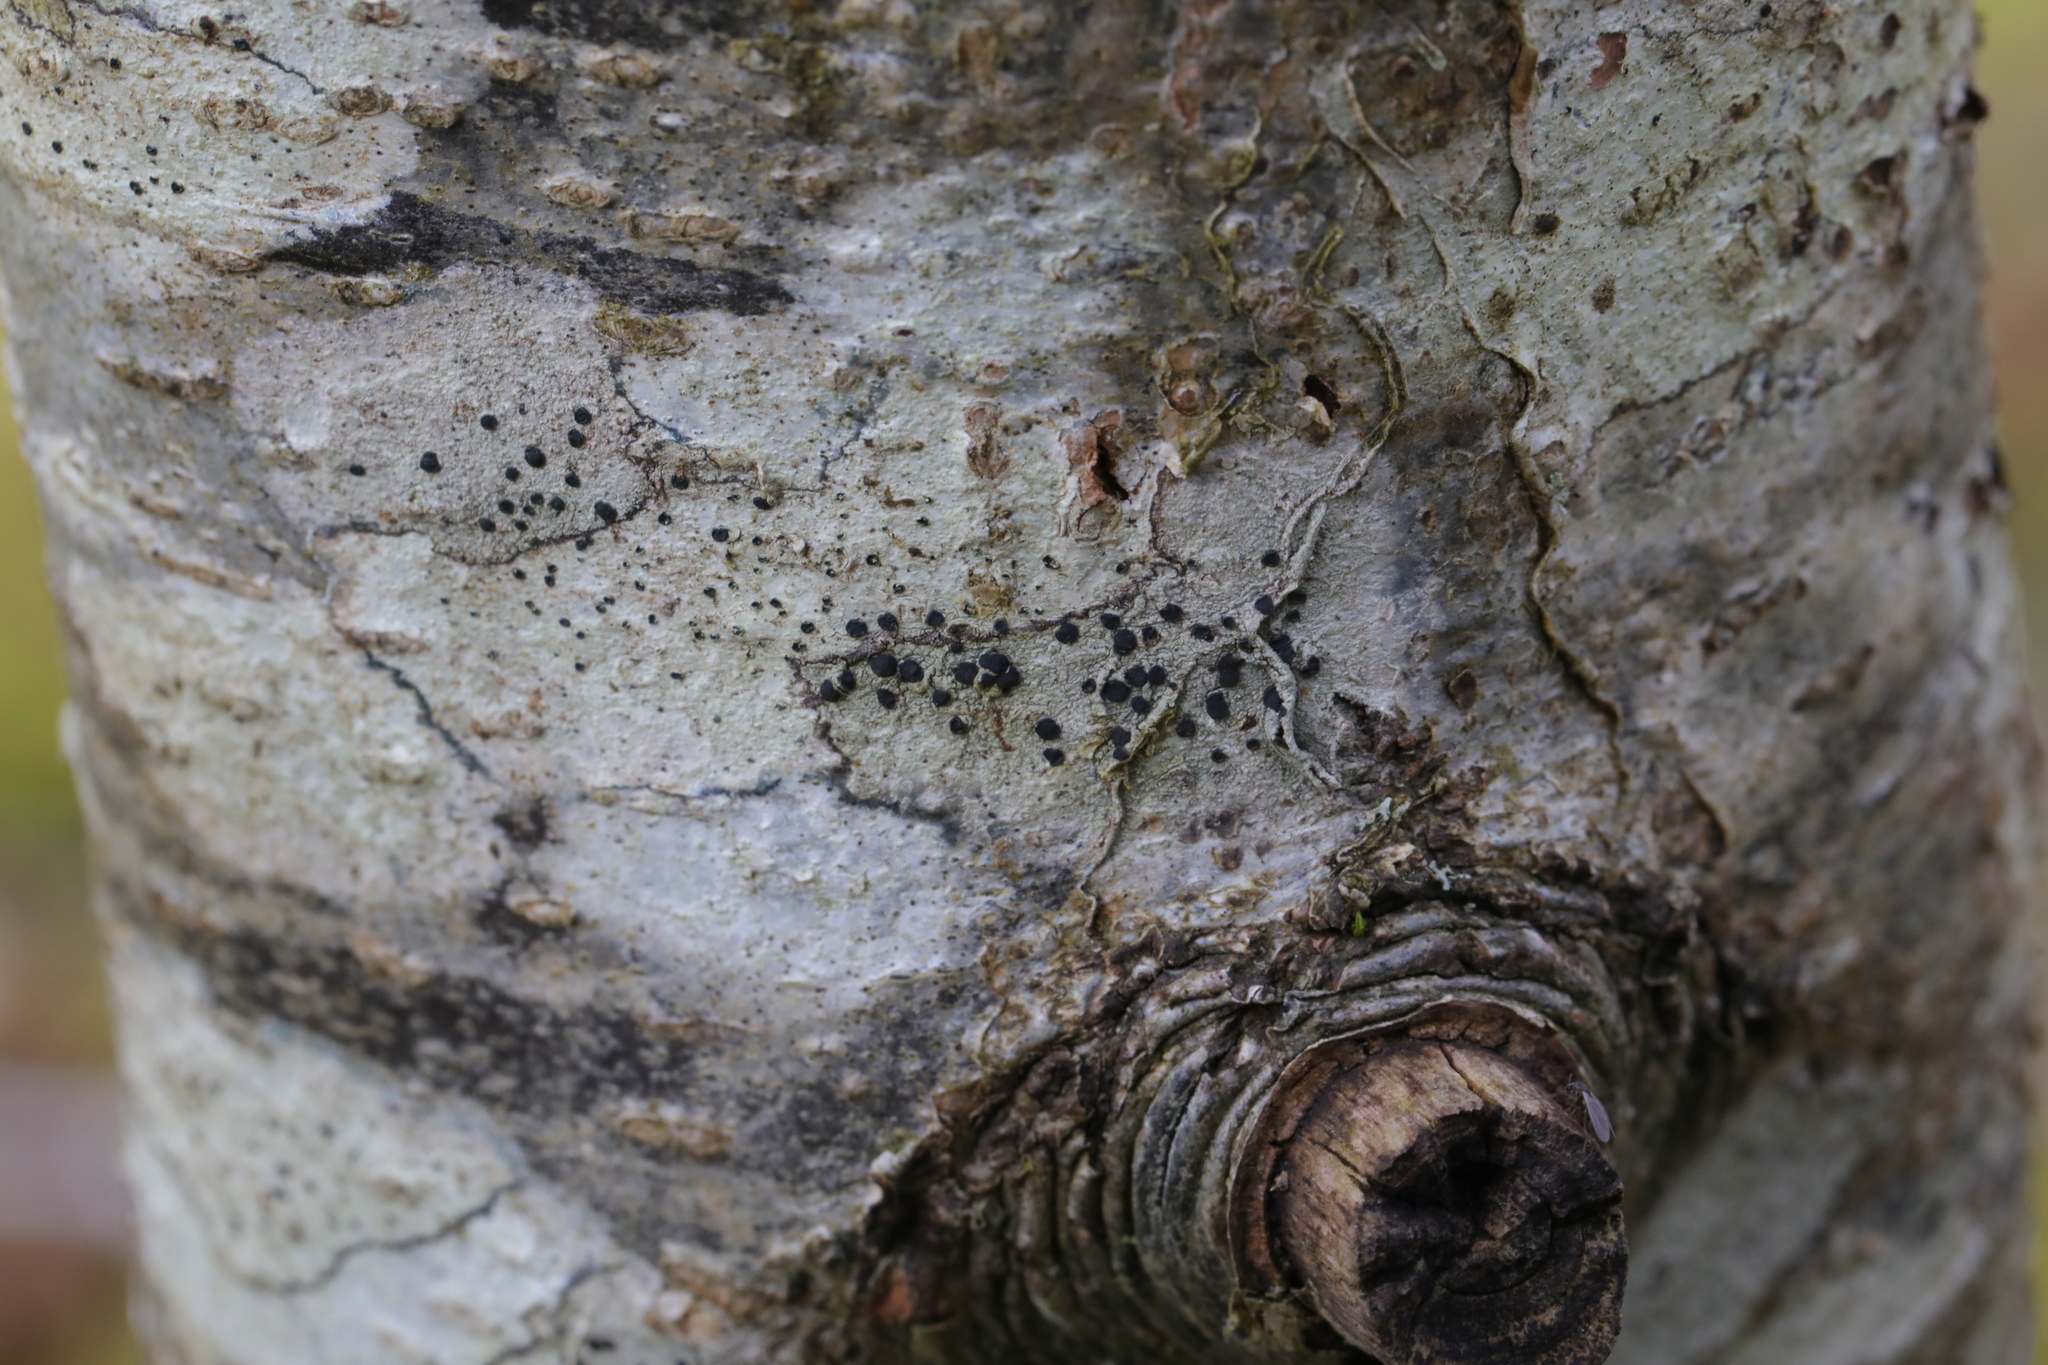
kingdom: Fungi
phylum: Ascomycota
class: Lecanoromycetes
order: Lecanorales
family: Lecanoraceae
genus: Lecidella
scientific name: Lecidella elaeochroma
